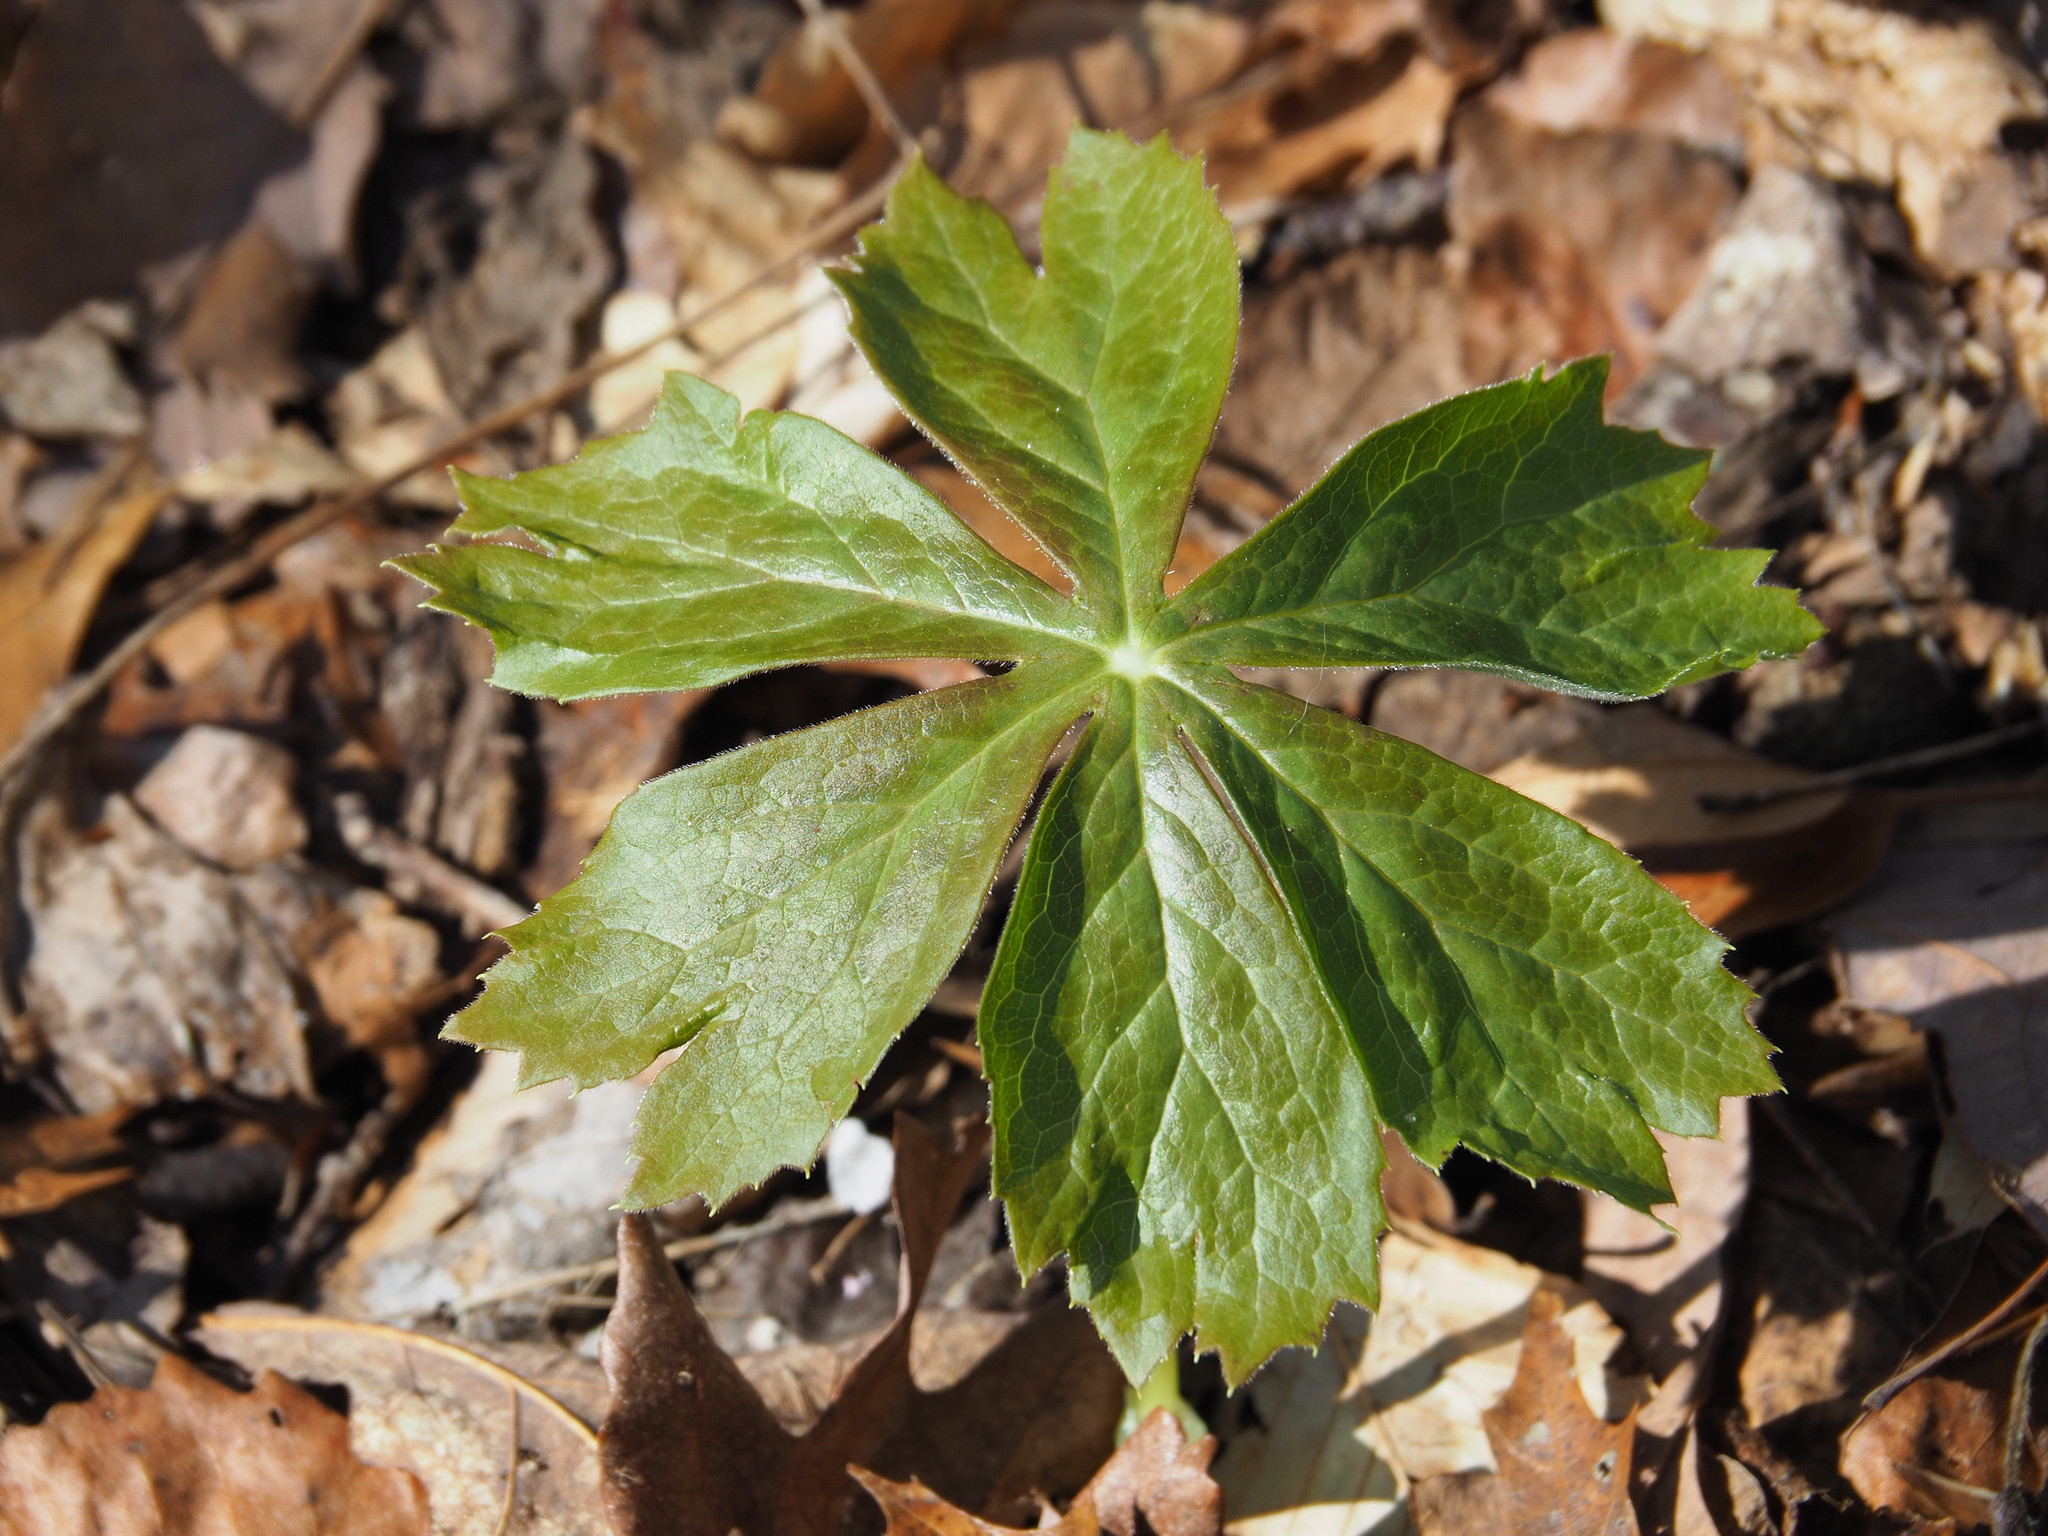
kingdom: Plantae
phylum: Tracheophyta
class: Magnoliopsida
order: Ranunculales
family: Berberidaceae
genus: Podophyllum
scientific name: Podophyllum peltatum
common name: Wild mandrake
